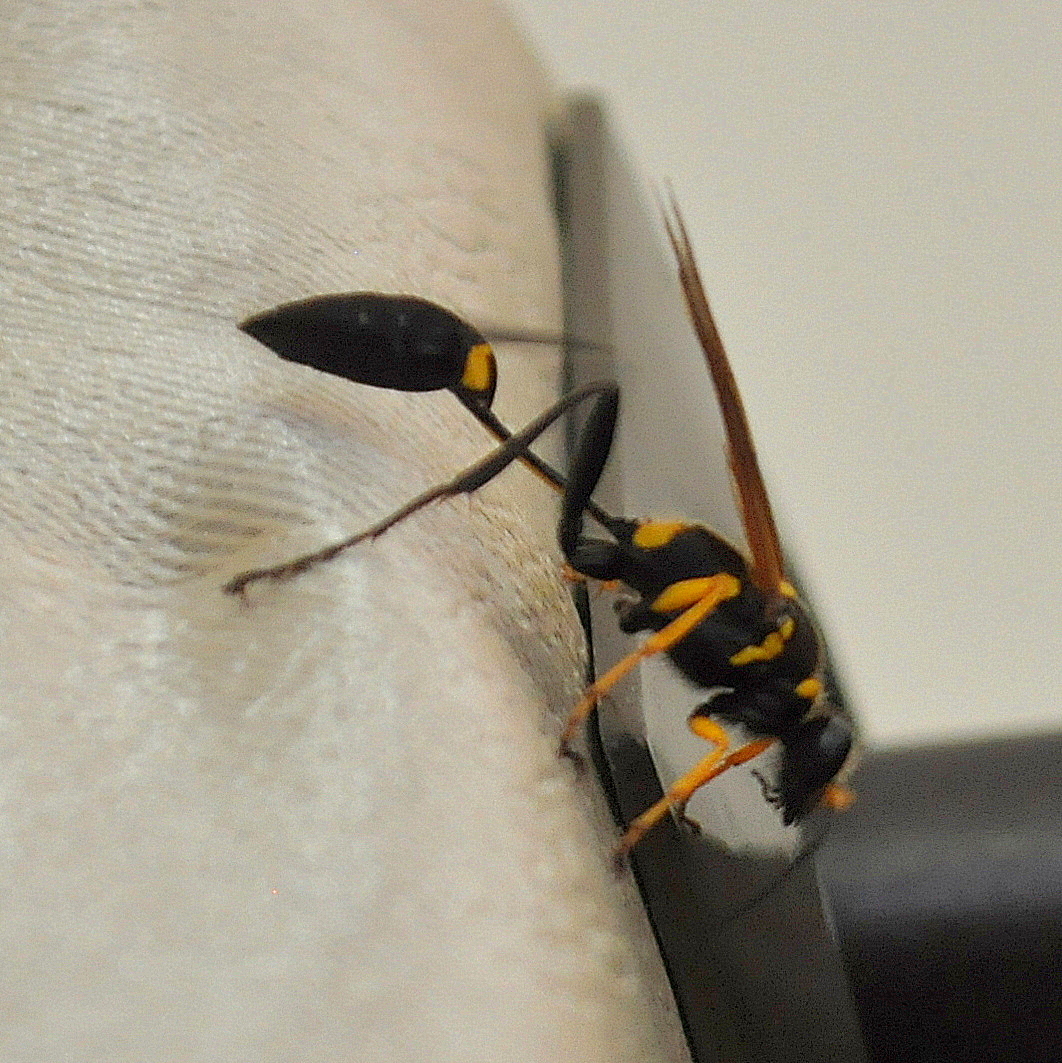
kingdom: Animalia
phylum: Arthropoda
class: Insecta
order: Hymenoptera
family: Sphecidae
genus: Sceliphron
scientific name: Sceliphron asiaticum
